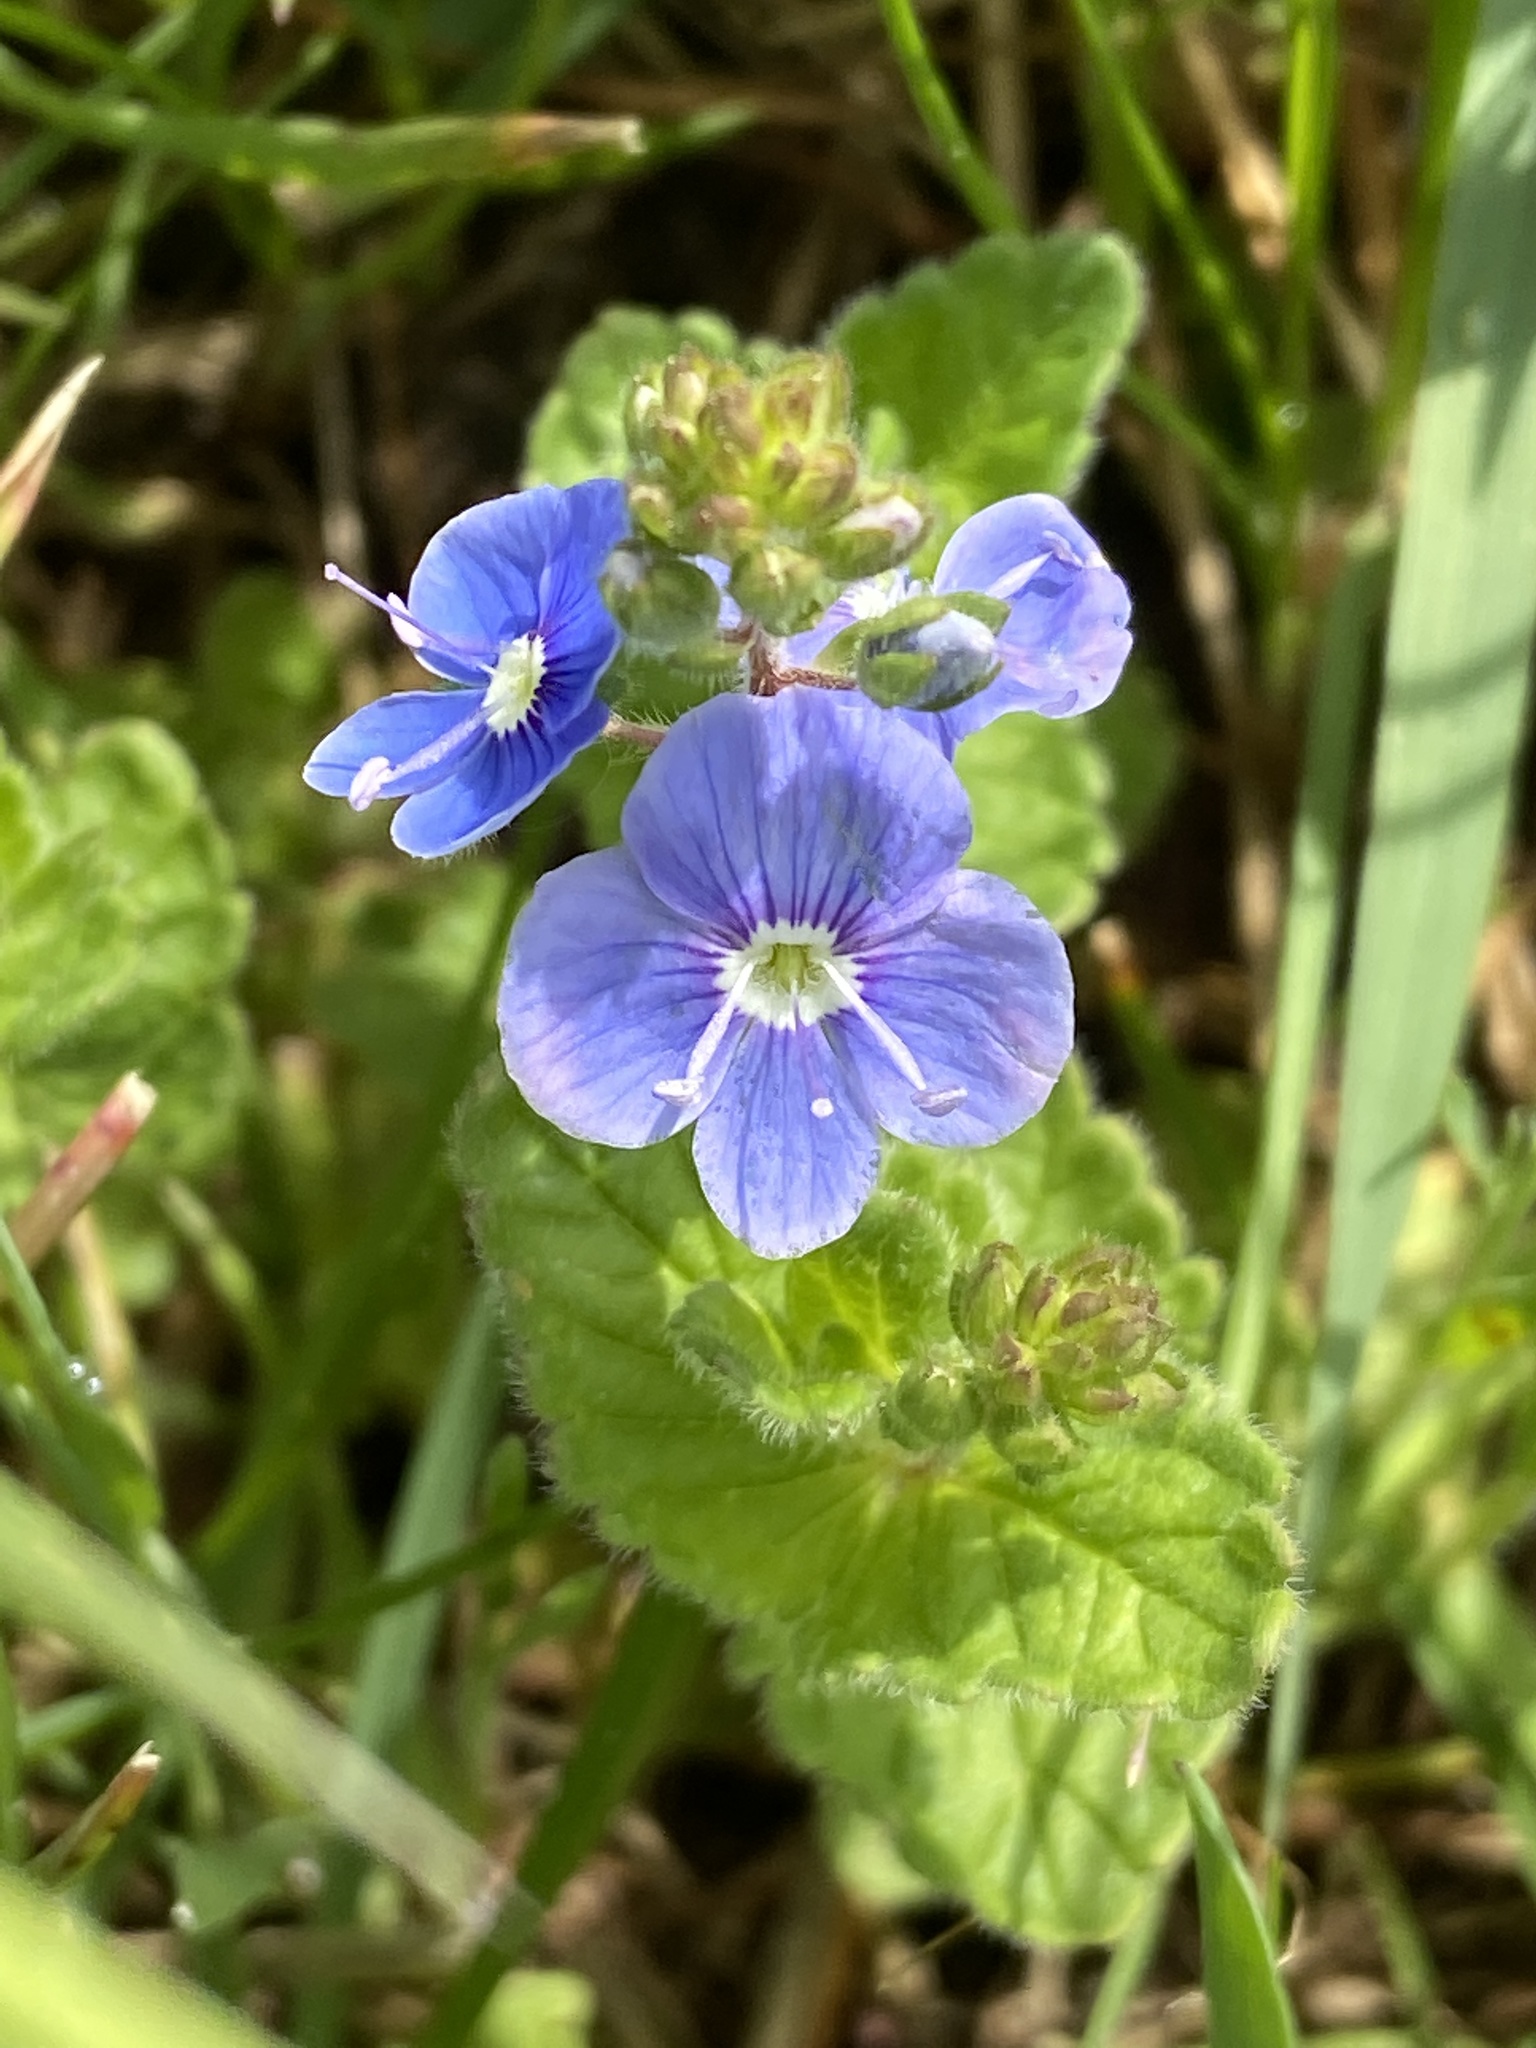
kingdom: Plantae
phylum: Tracheophyta
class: Magnoliopsida
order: Lamiales
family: Plantaginaceae
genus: Veronica
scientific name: Veronica chamaedrys
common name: Germander speedwell
